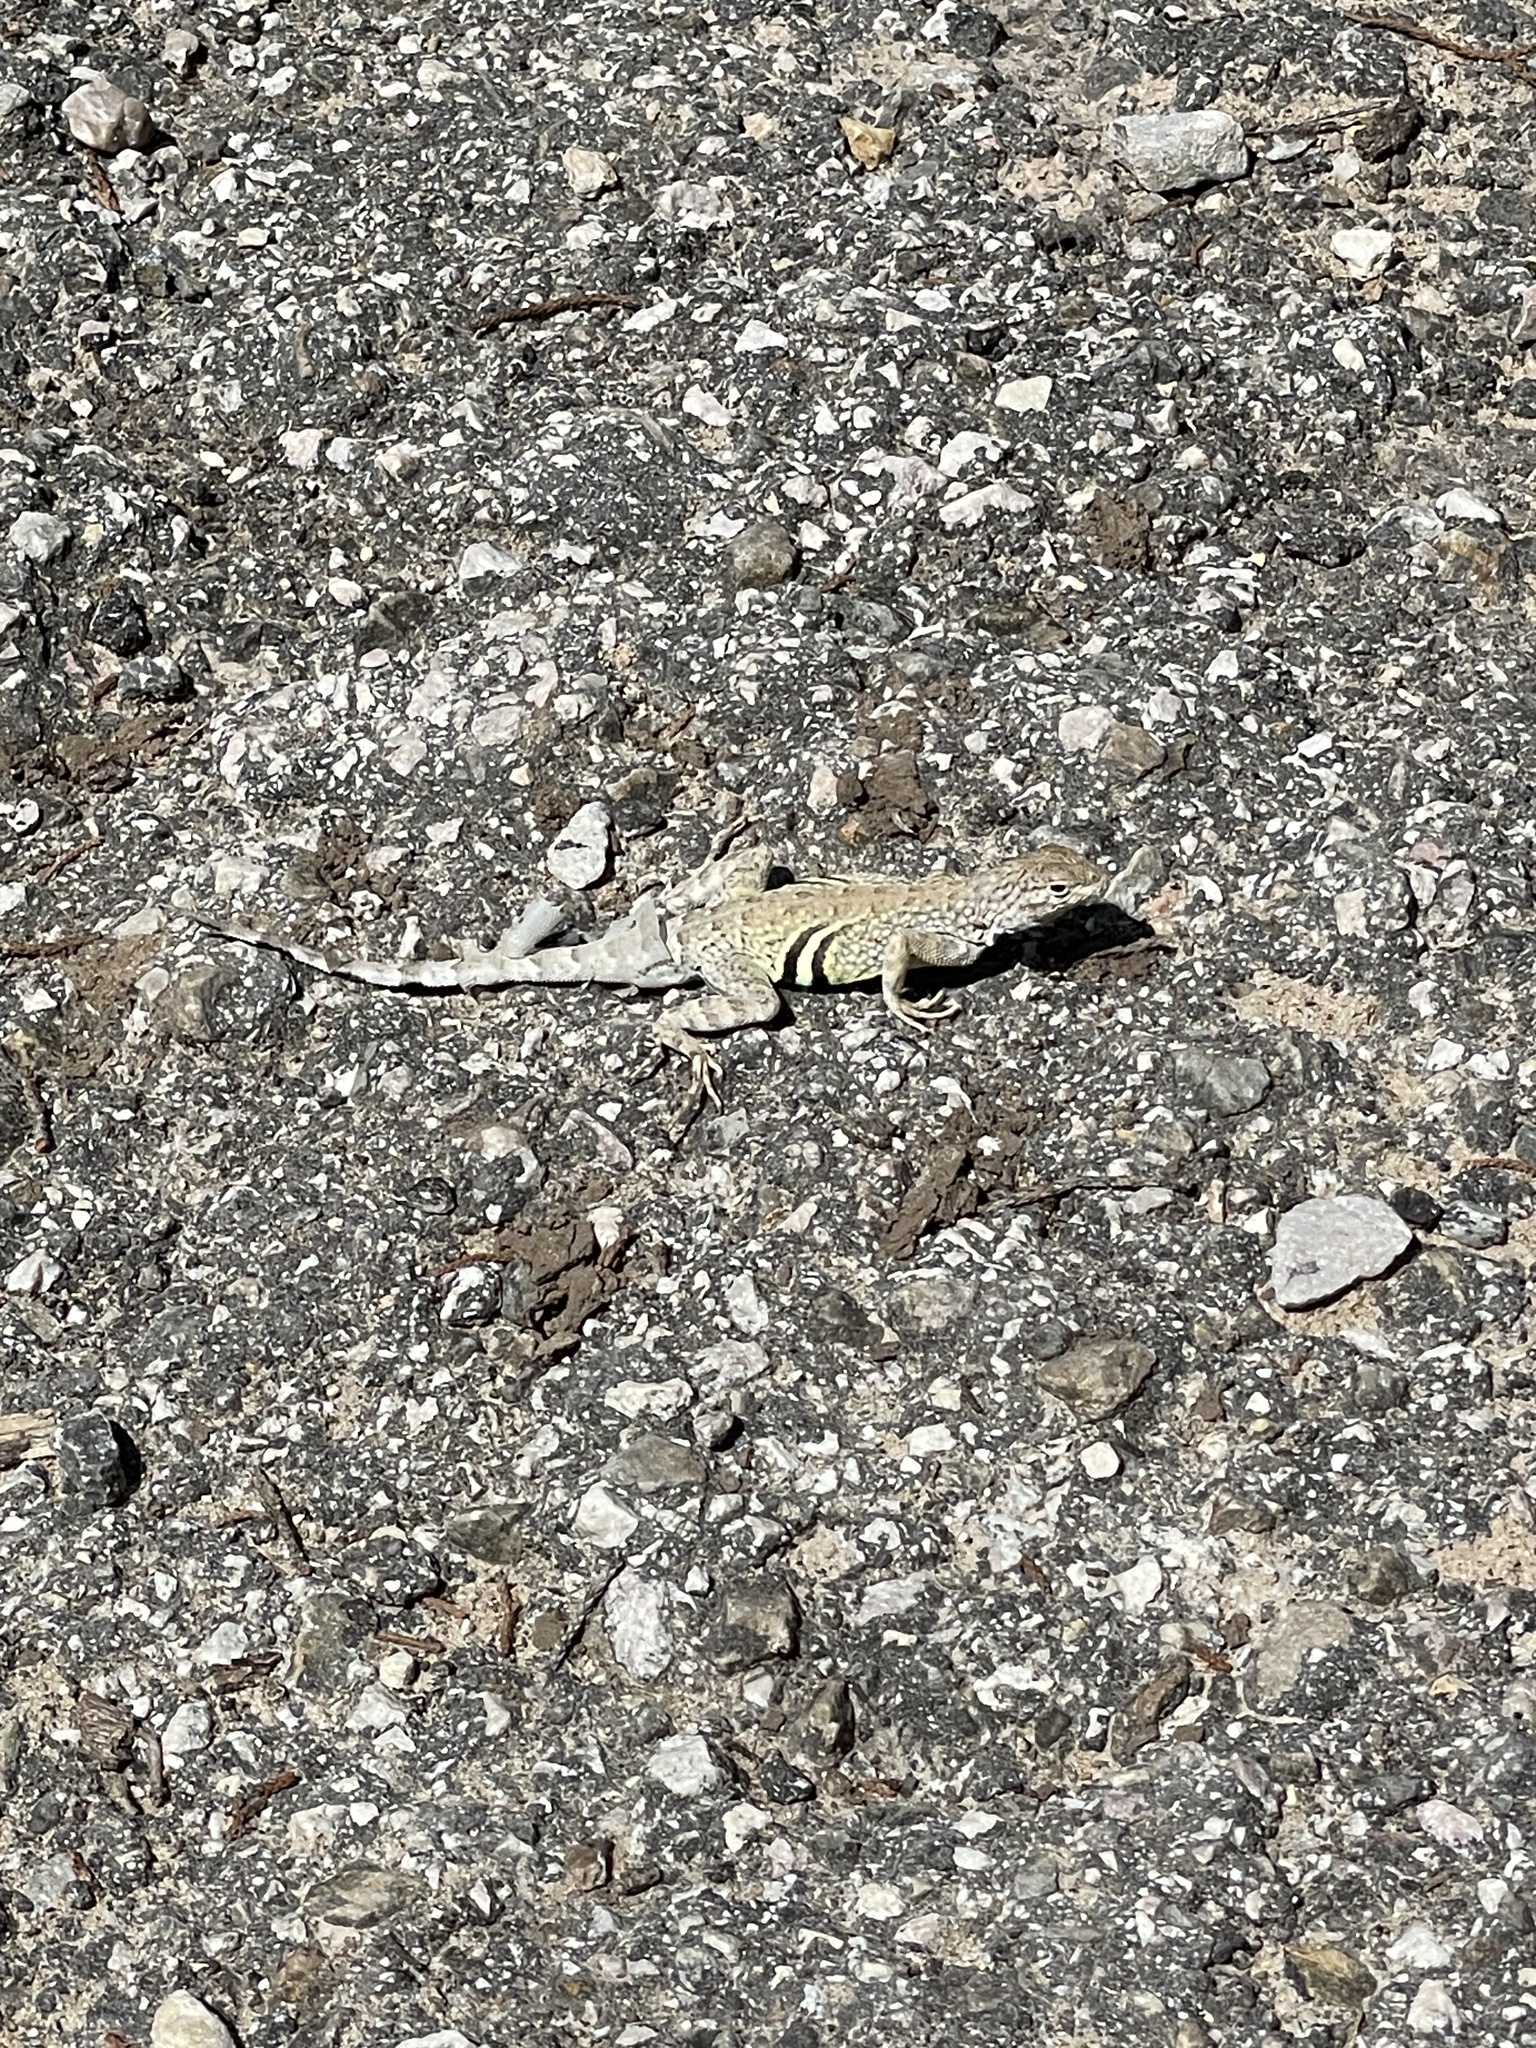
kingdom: Animalia
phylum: Chordata
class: Squamata
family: Phrynosomatidae
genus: Cophosaurus
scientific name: Cophosaurus texanus
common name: Greater earless lizard
